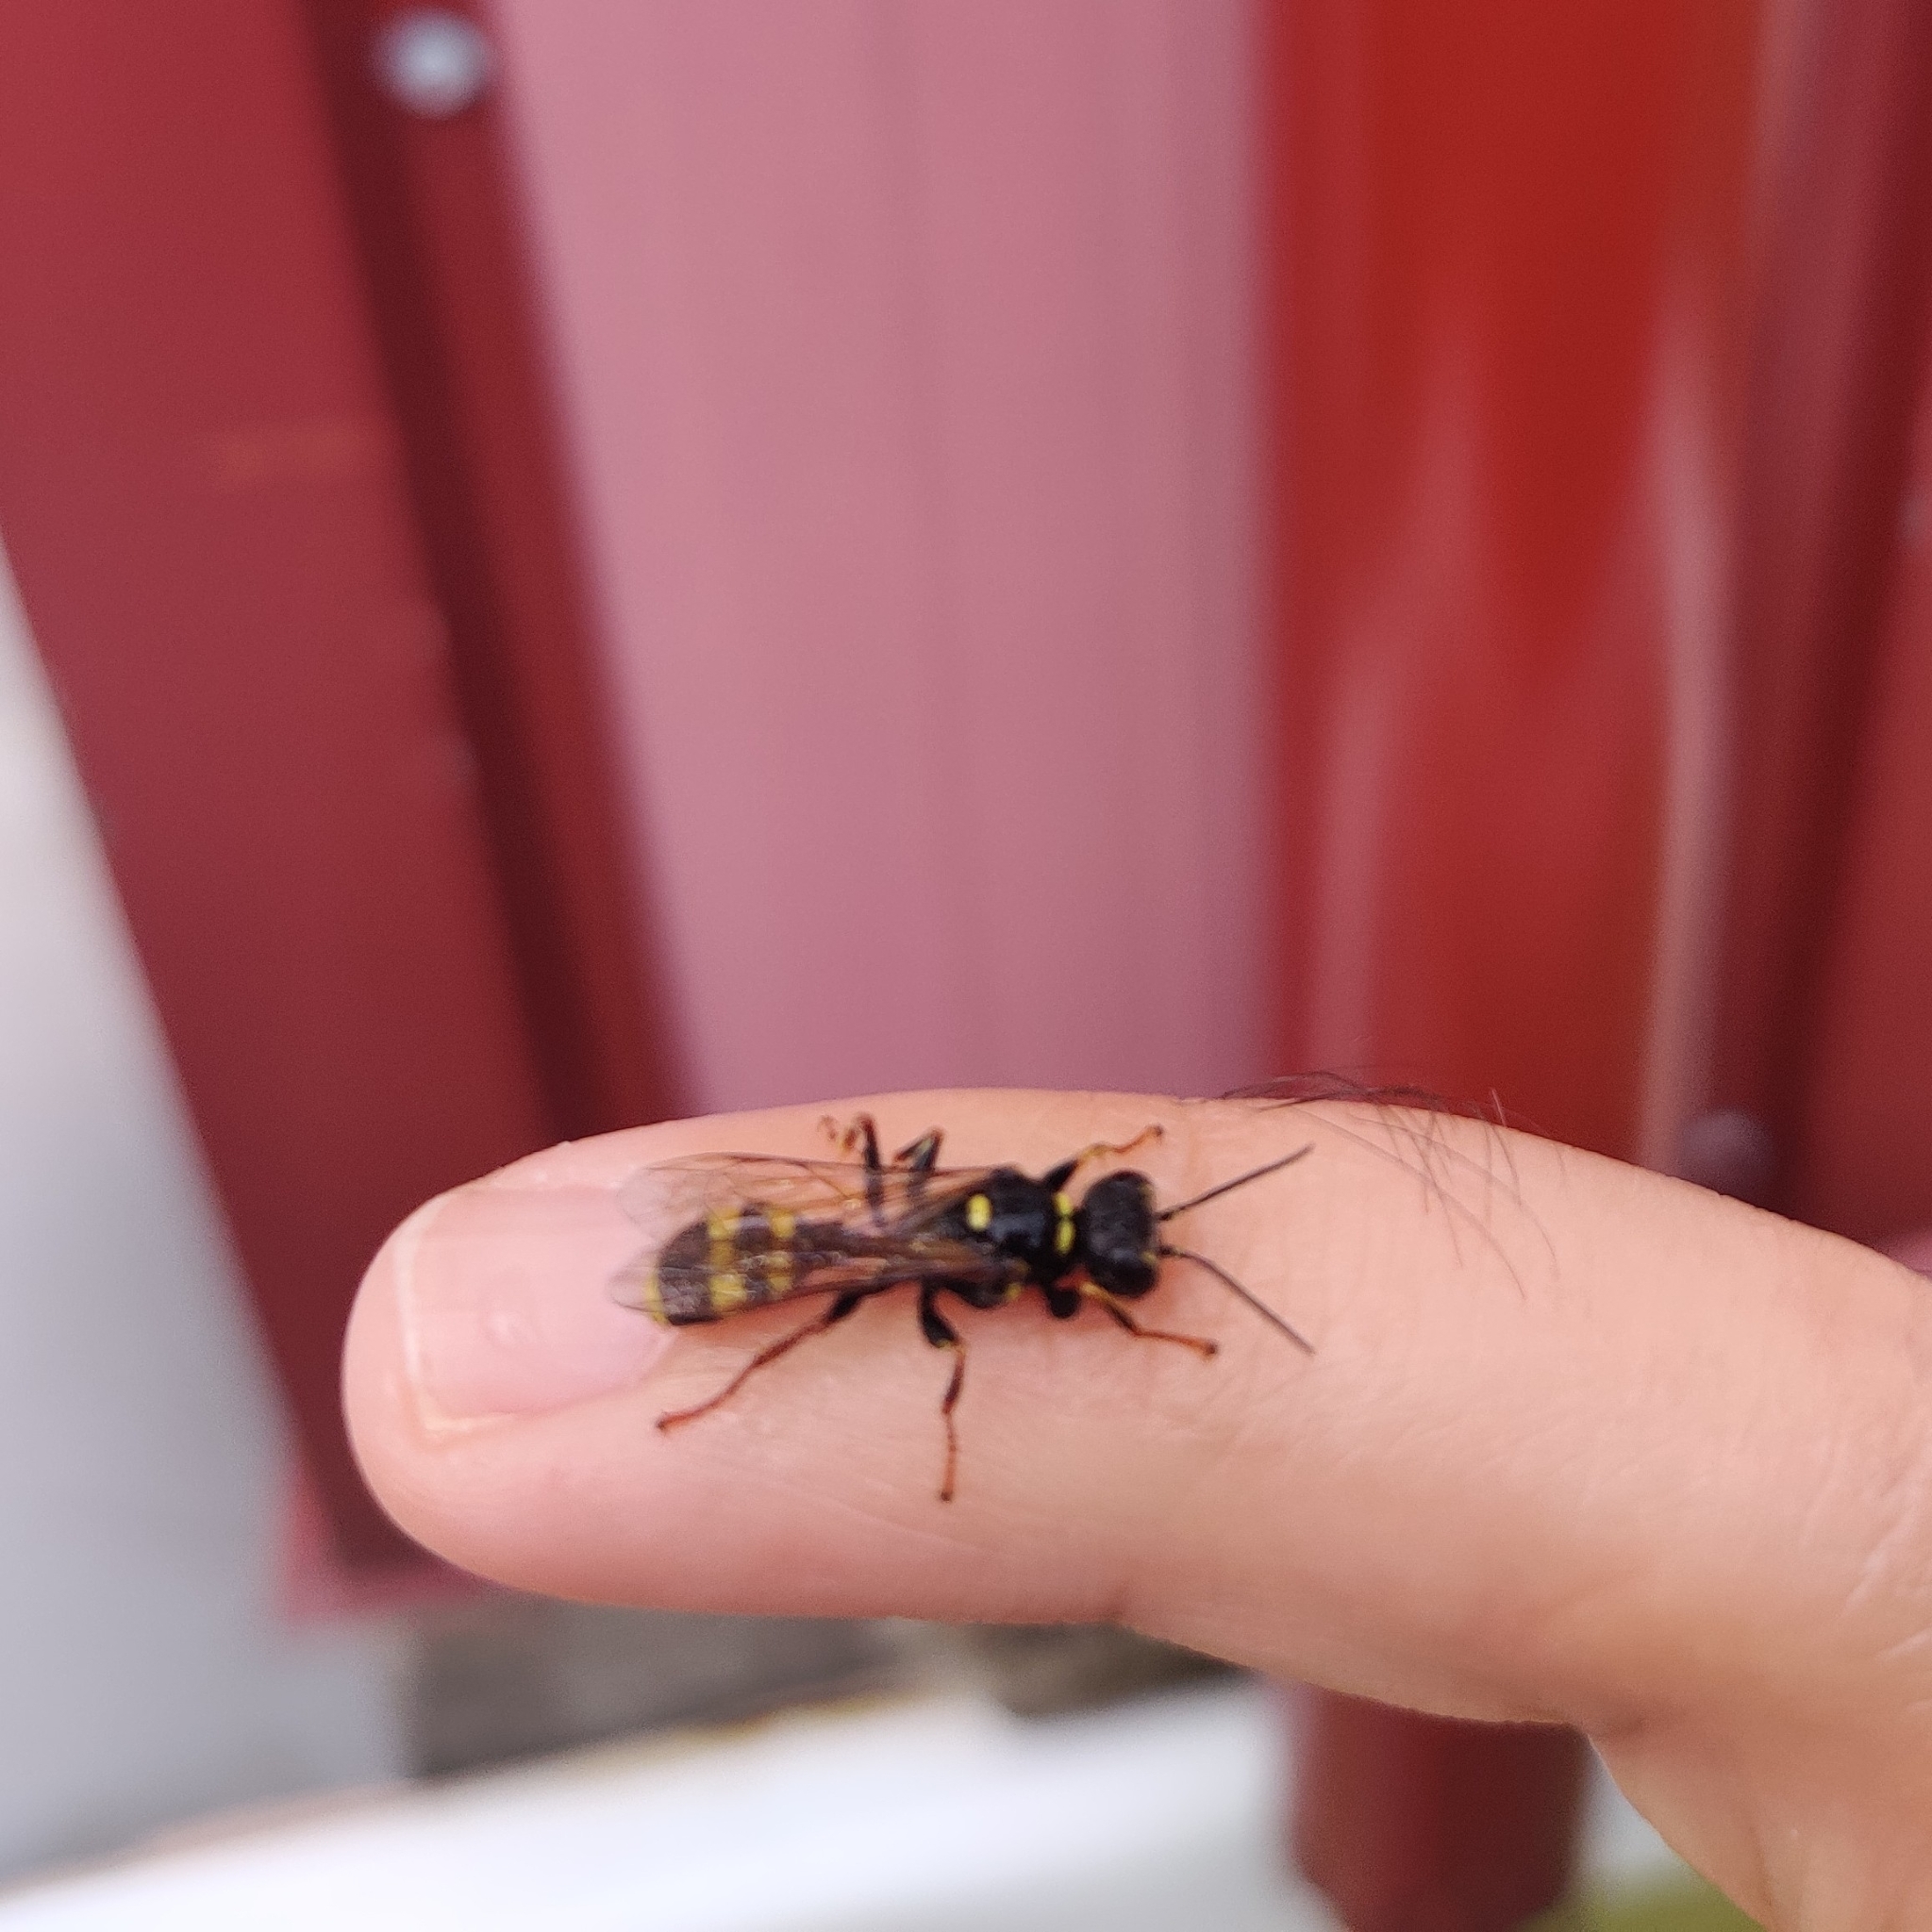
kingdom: Animalia
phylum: Arthropoda
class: Insecta
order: Hymenoptera
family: Crabronidae
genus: Mellinus
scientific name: Mellinus arvensis
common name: Field digger wasp
